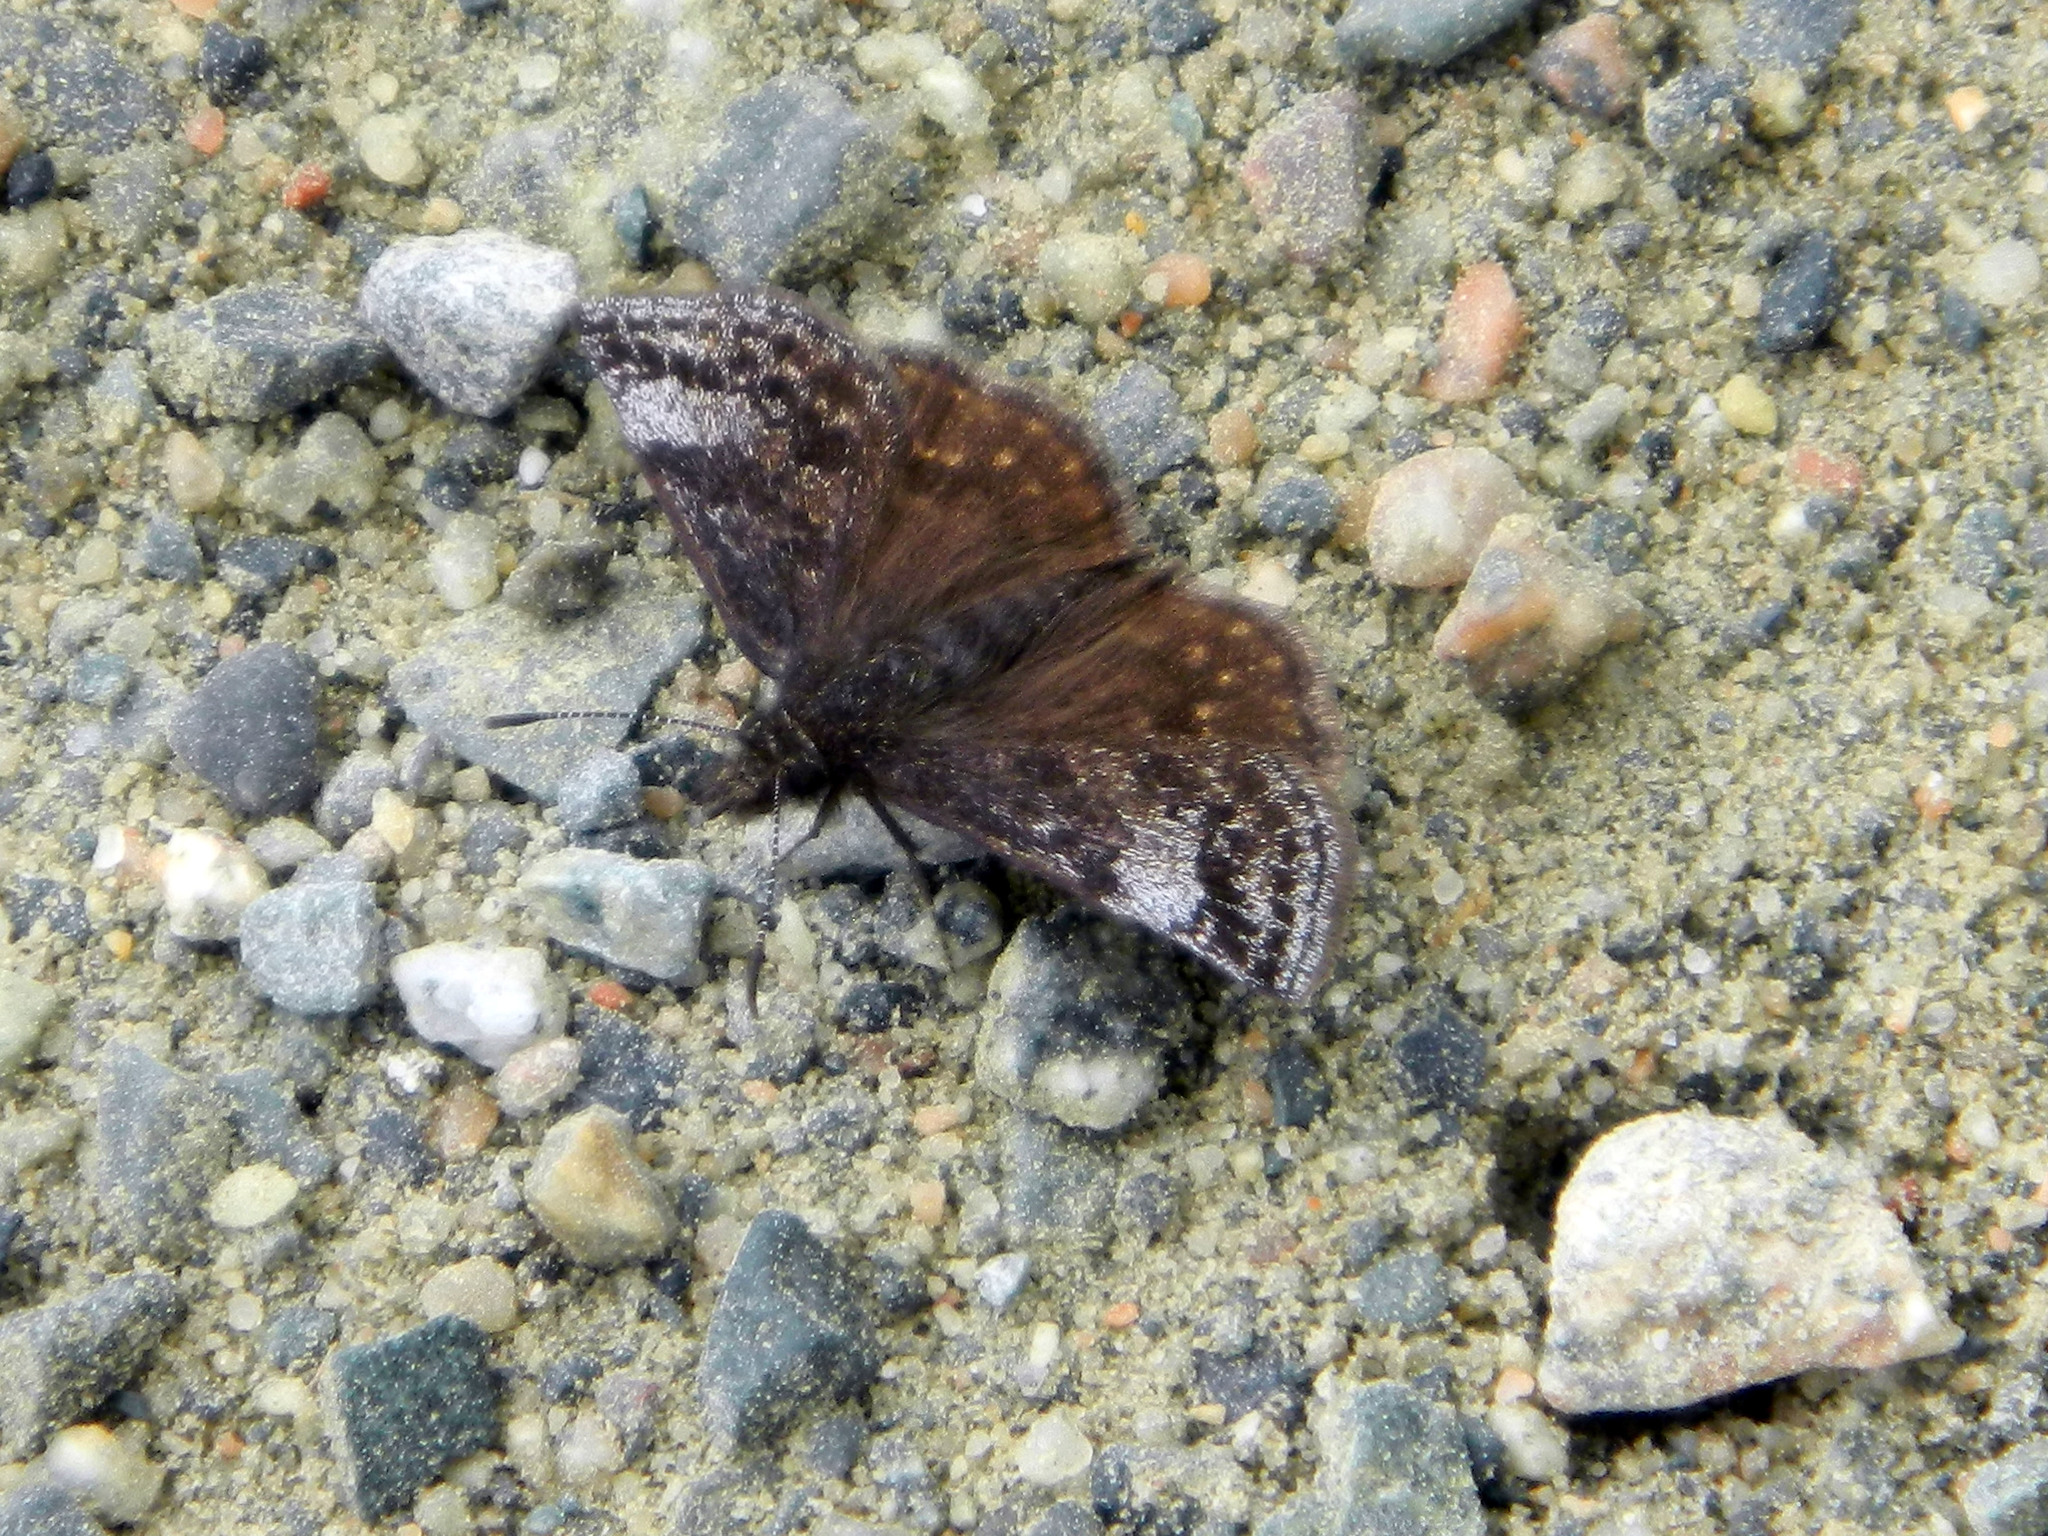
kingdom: Animalia
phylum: Arthropoda
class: Insecta
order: Lepidoptera
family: Hesperiidae
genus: Erynnis
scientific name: Erynnis icelus
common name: Dreamy duskywing
